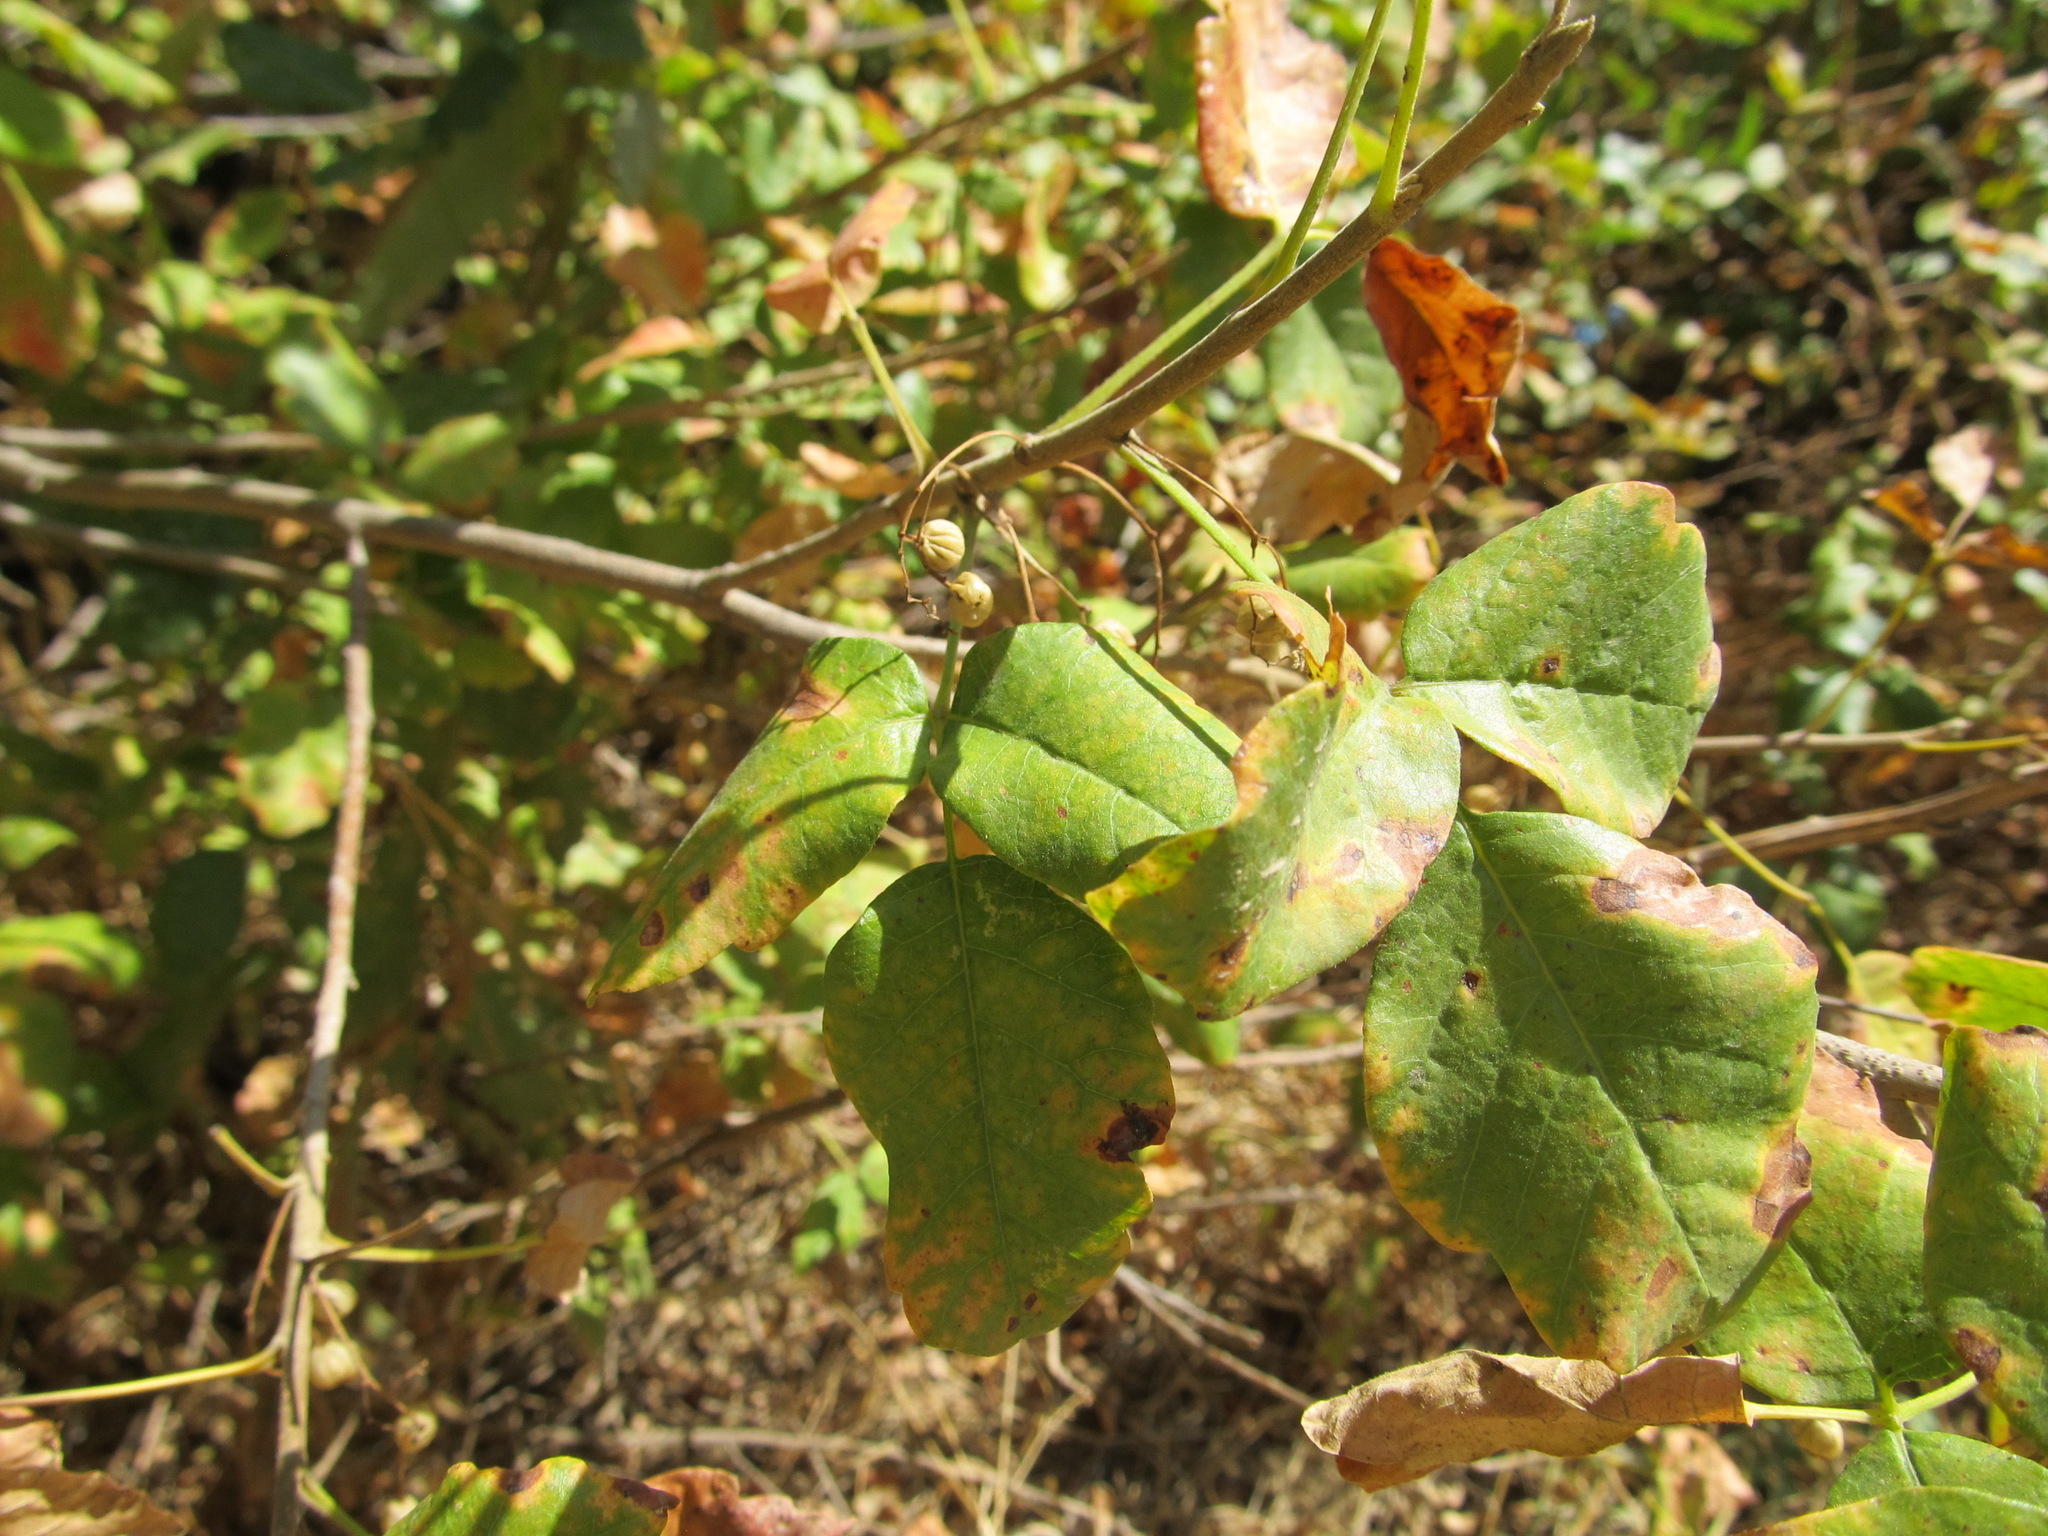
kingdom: Plantae
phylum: Tracheophyta
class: Magnoliopsida
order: Sapindales
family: Anacardiaceae
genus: Toxicodendron
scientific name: Toxicodendron diversilobum
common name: Pacific poison-oak
